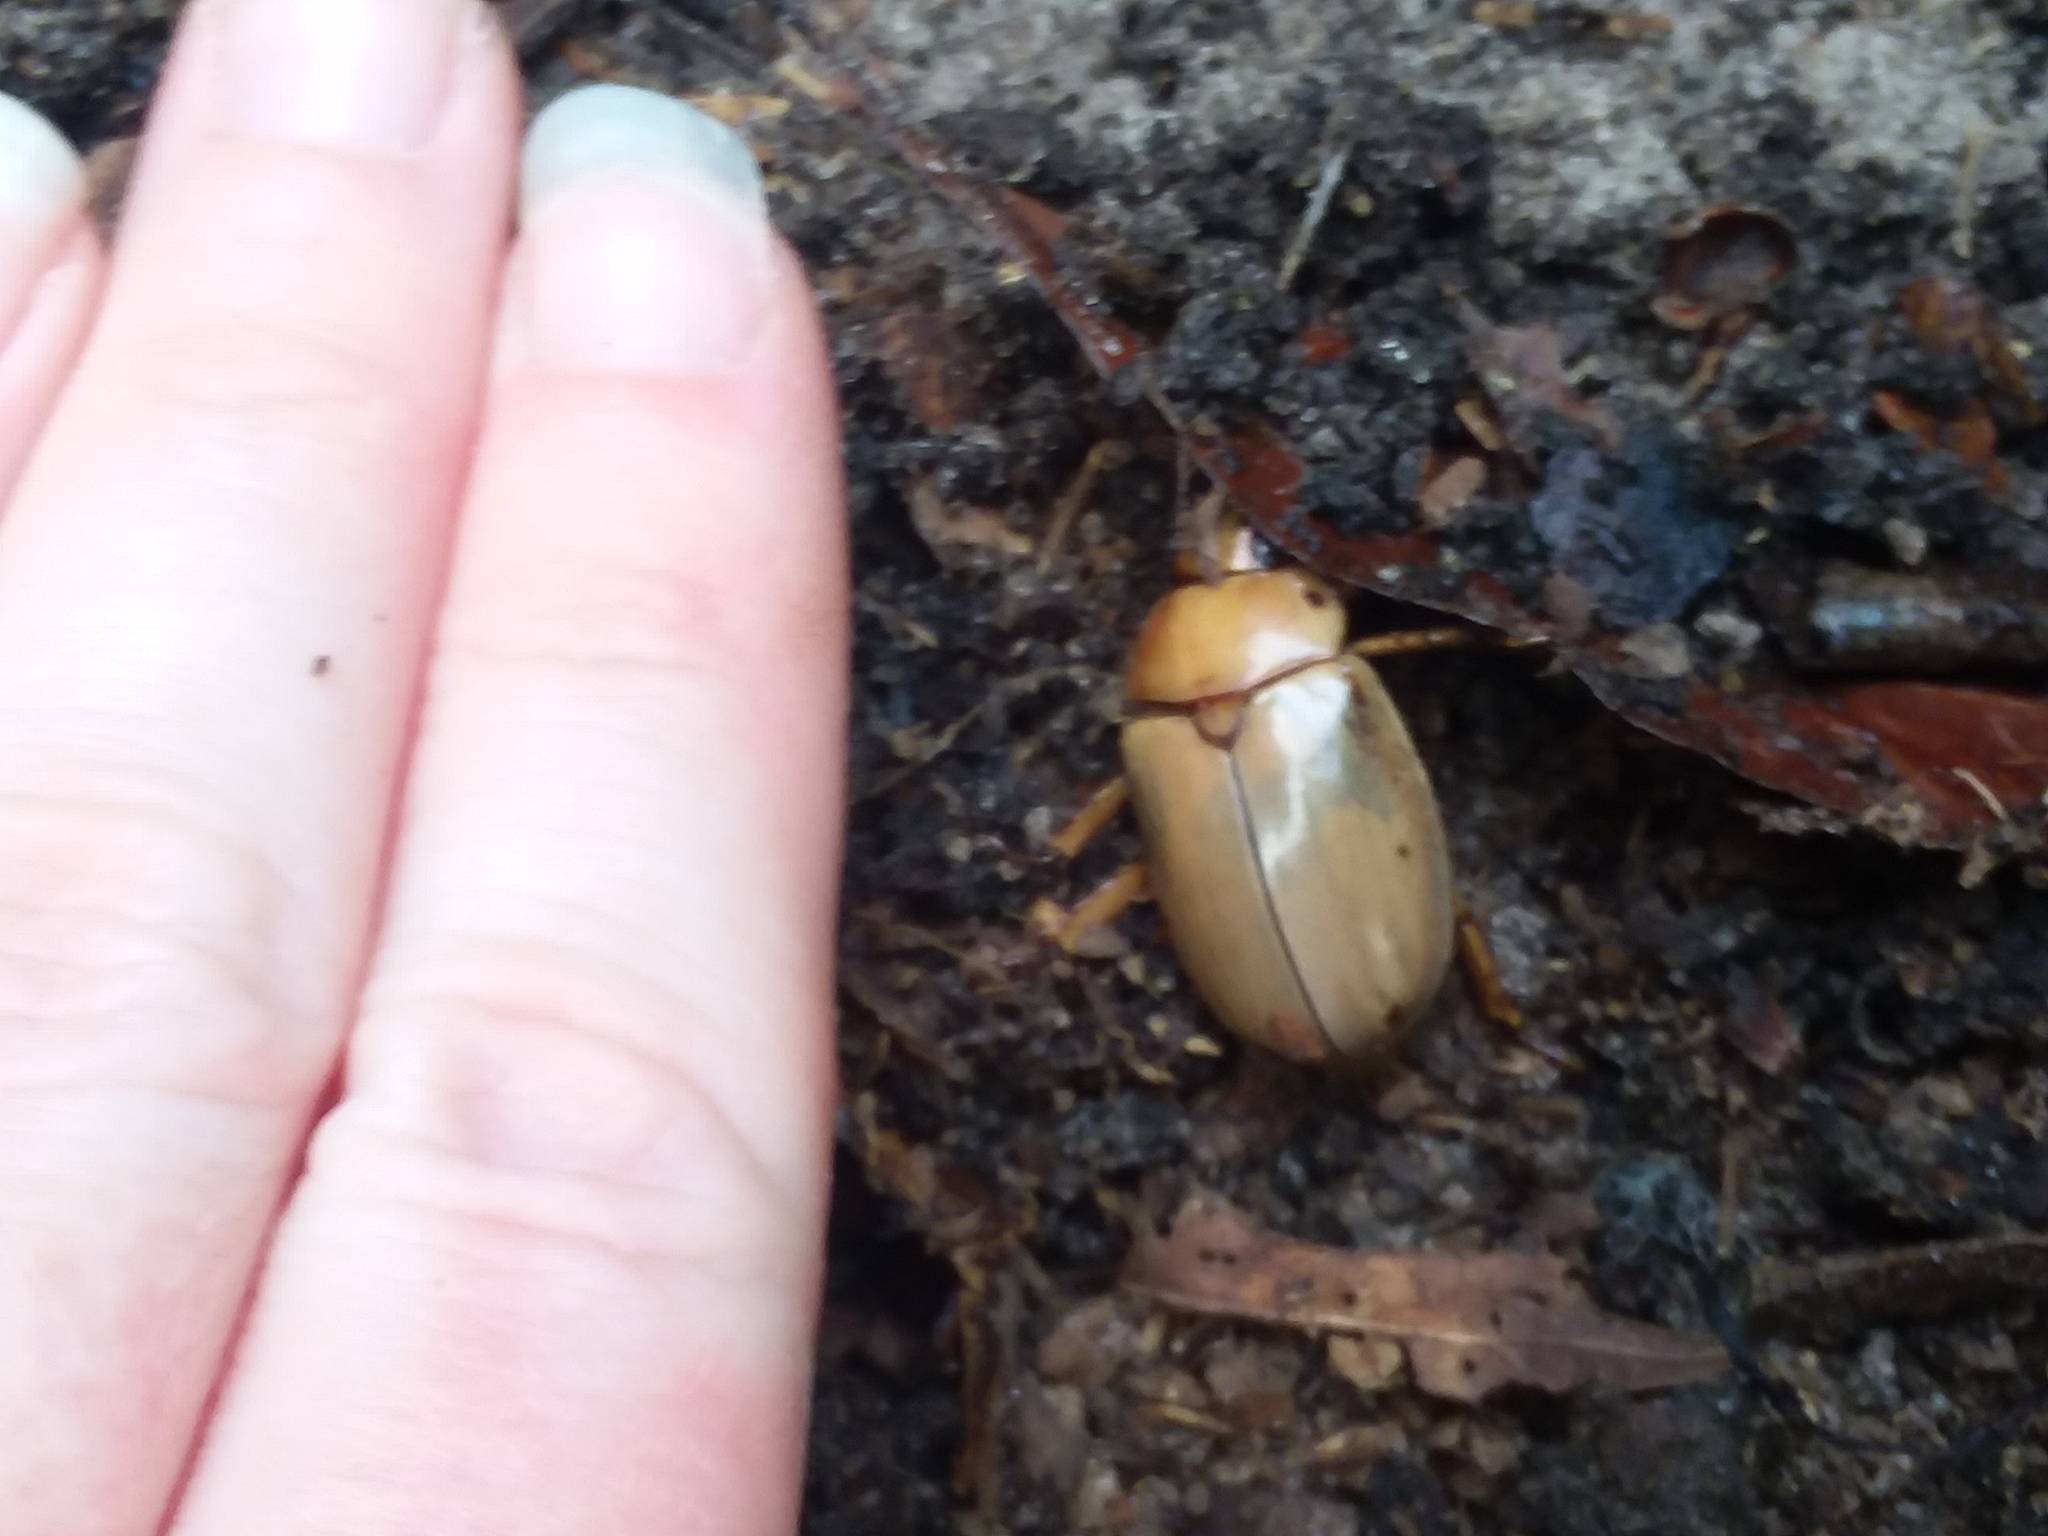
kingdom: Animalia
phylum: Arthropoda
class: Insecta
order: Coleoptera
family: Scarabaeidae
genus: Pelidnota
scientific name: Pelidnota punctata
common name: Grapevine beetle
